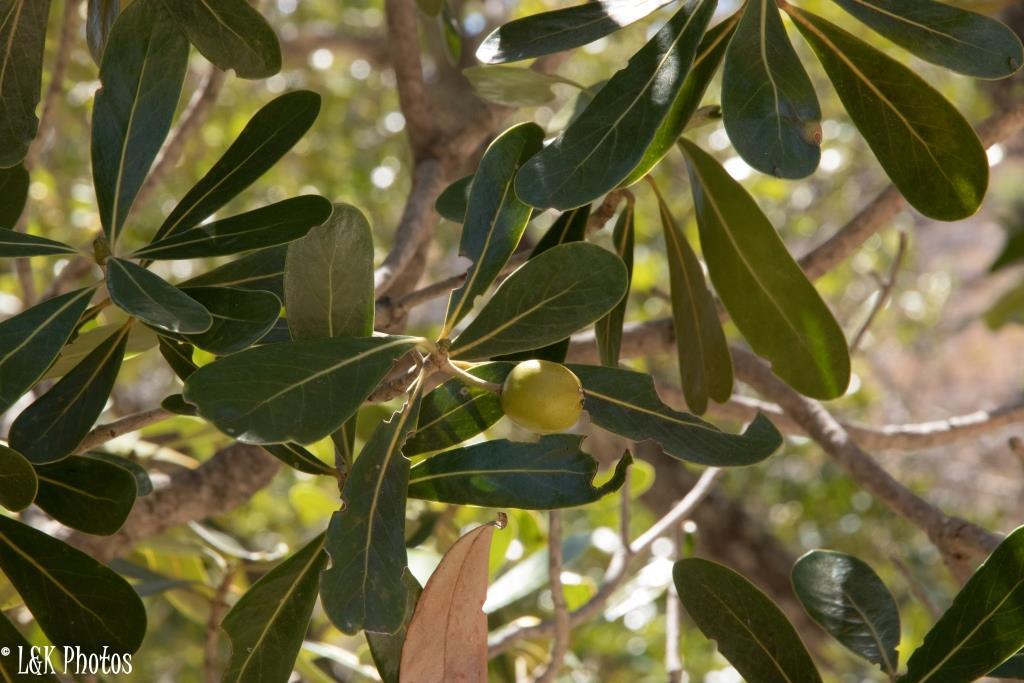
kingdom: Plantae
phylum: Tracheophyta
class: Magnoliopsida
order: Malpighiales
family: Phyllanthaceae
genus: Uapaca
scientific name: Uapaca bojeri
